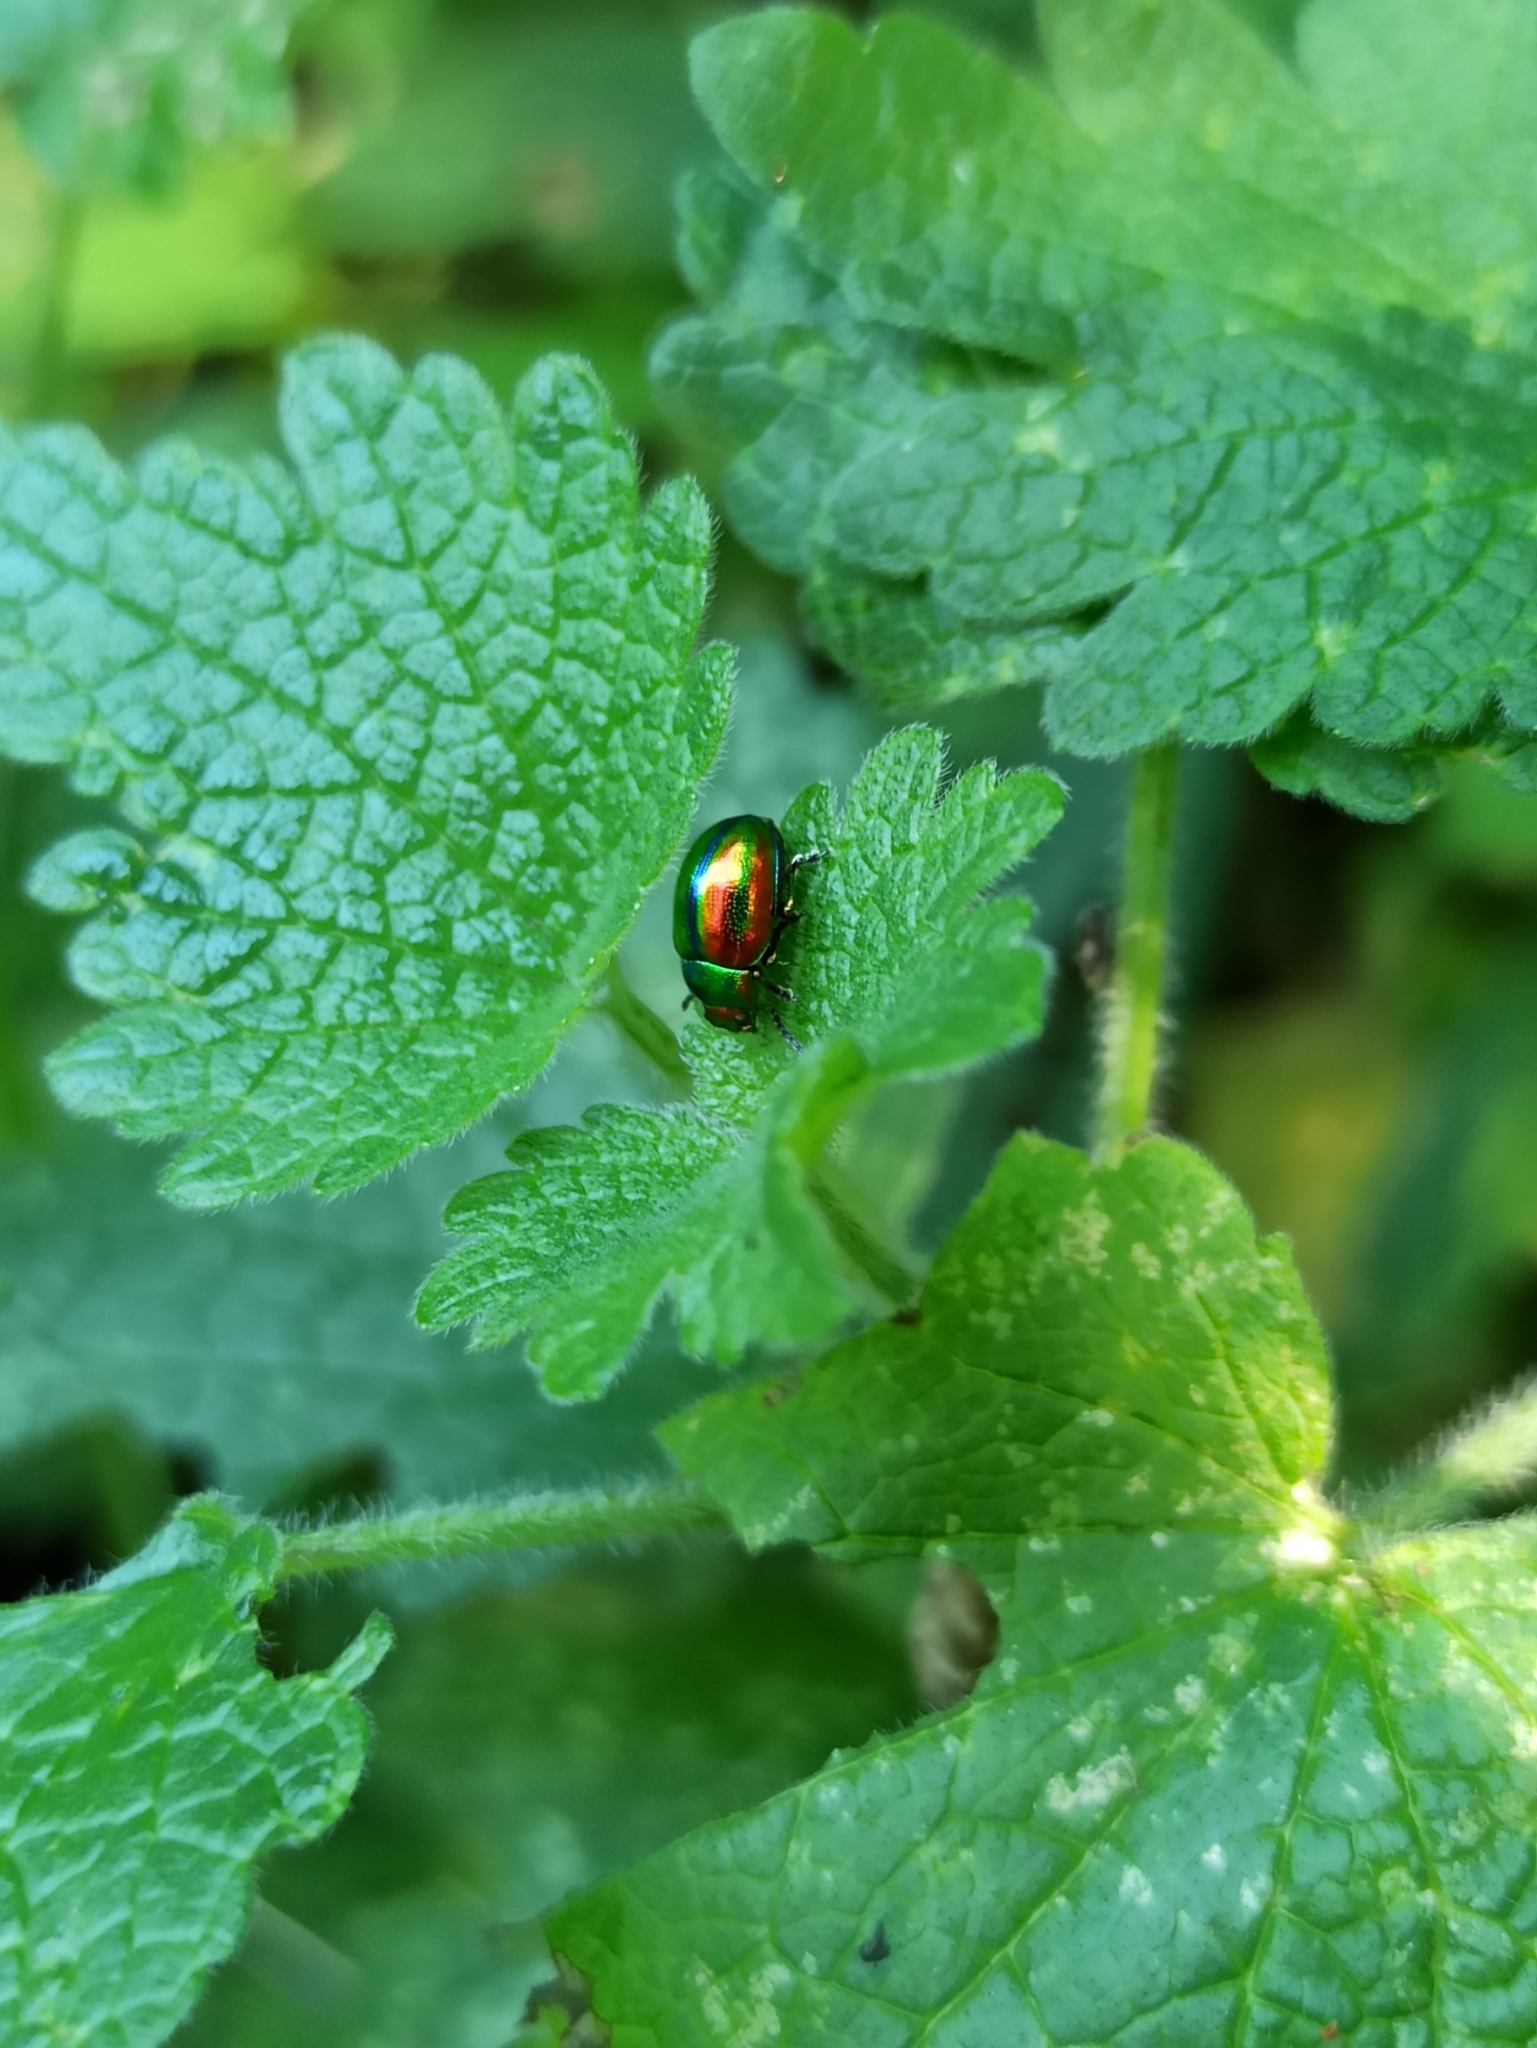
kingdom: Animalia
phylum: Arthropoda
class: Insecta
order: Coleoptera
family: Chrysomelidae
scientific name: Chrysomelidae
